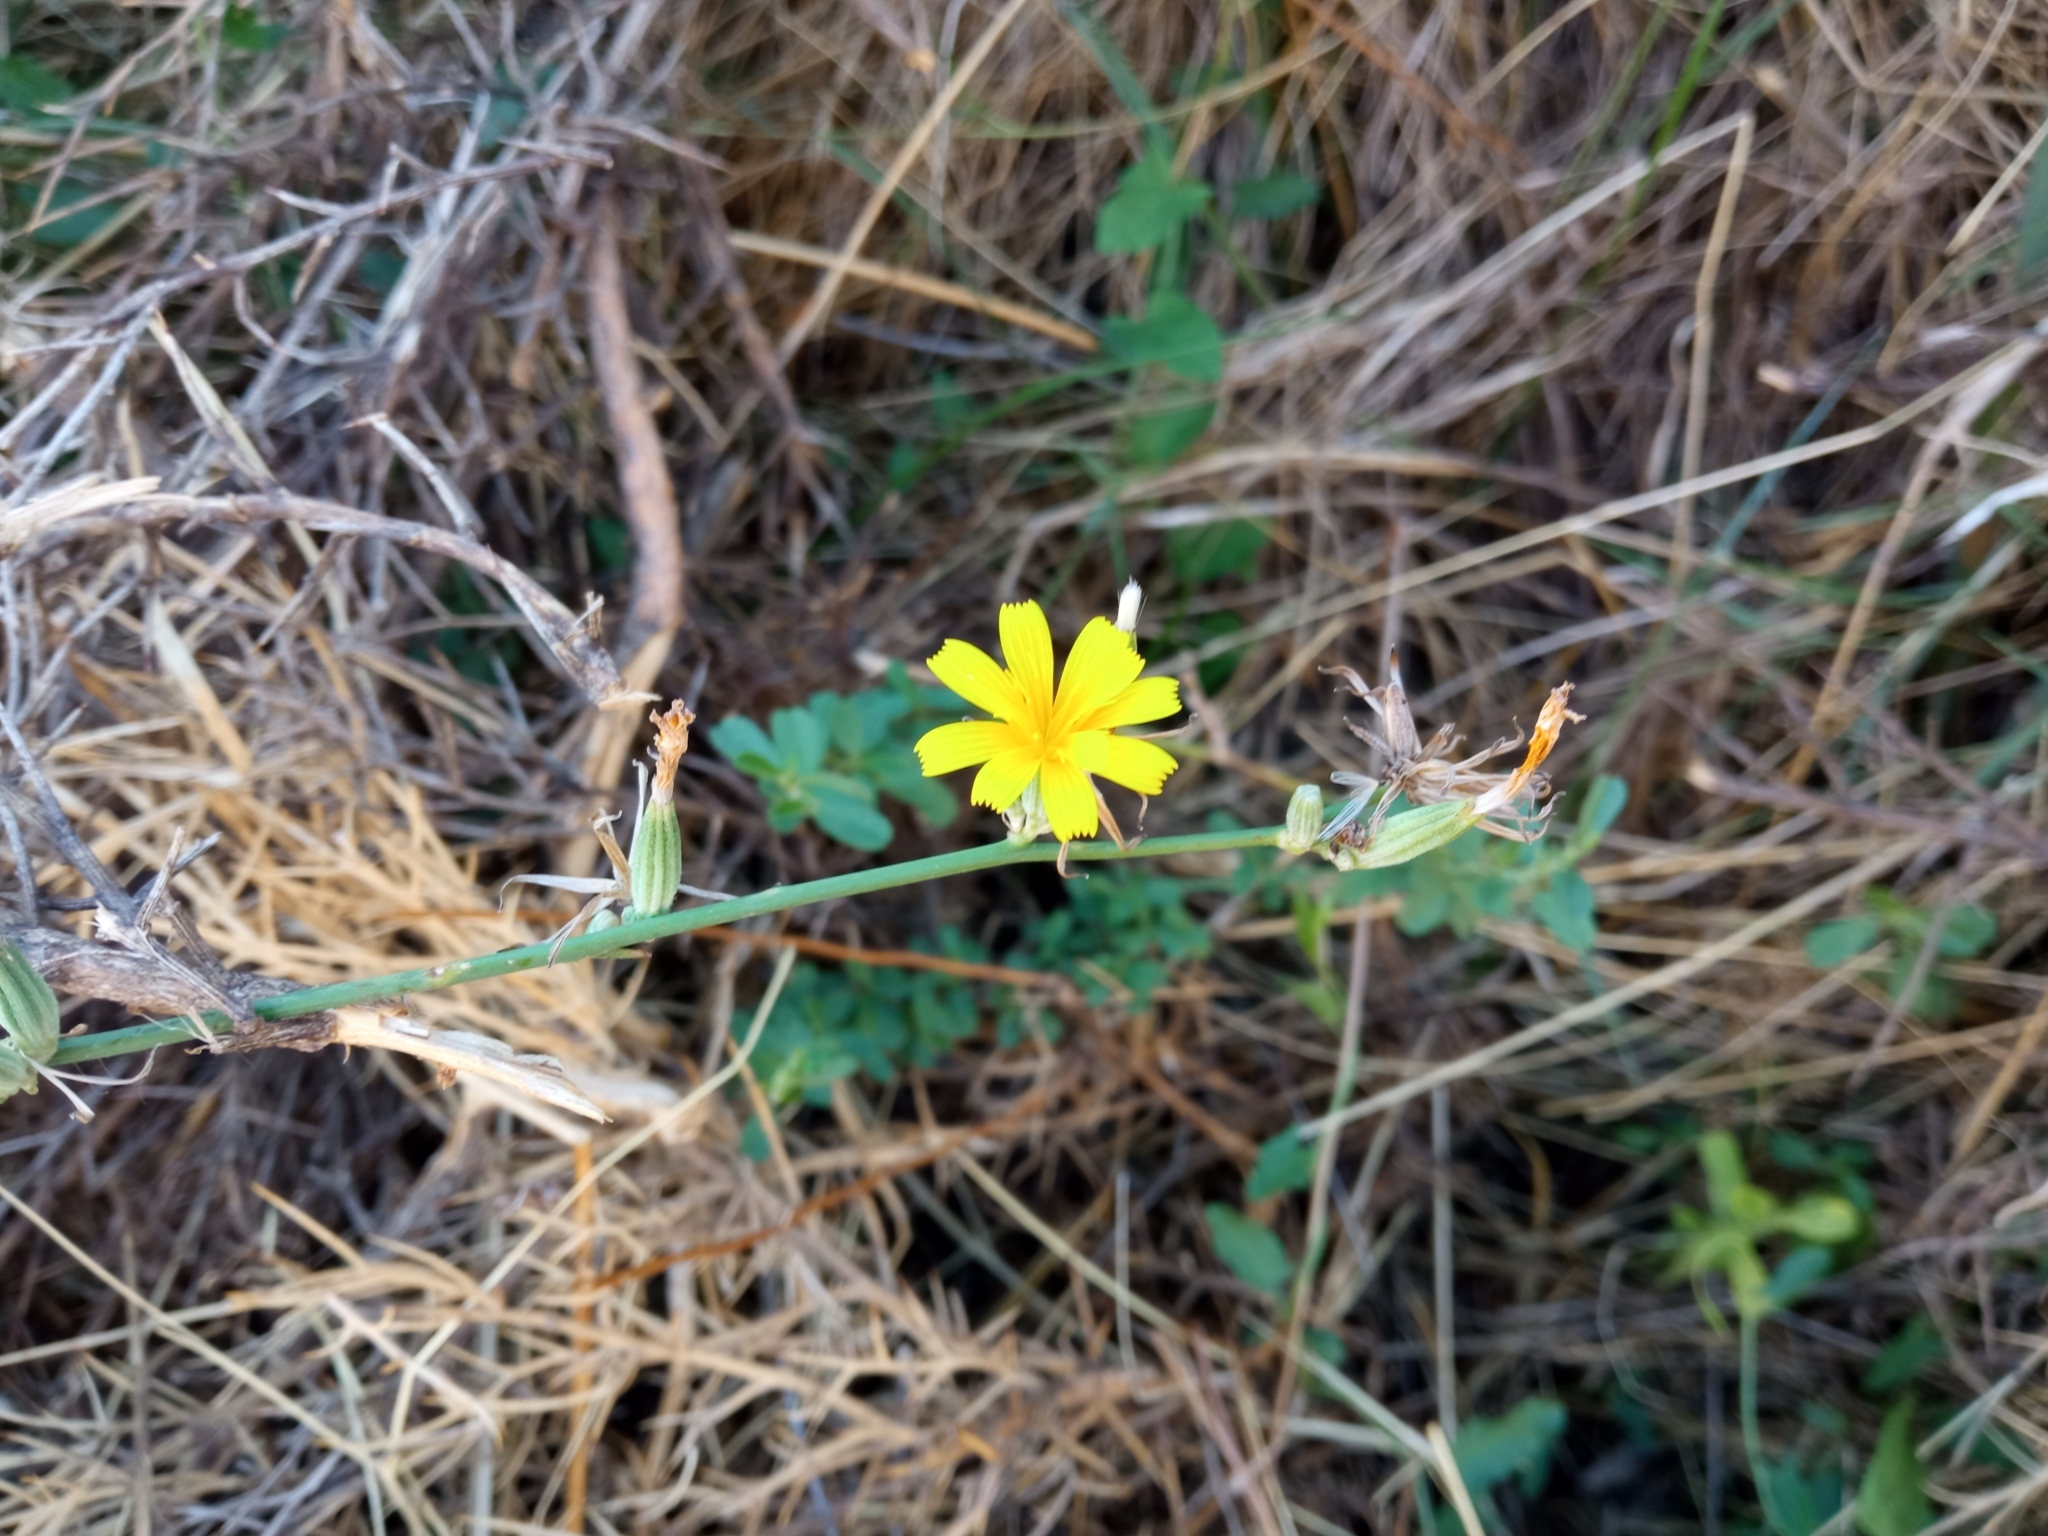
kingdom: Plantae
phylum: Tracheophyta
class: Magnoliopsida
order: Asterales
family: Asteraceae
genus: Chondrilla
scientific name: Chondrilla juncea
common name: Skeleton weed
